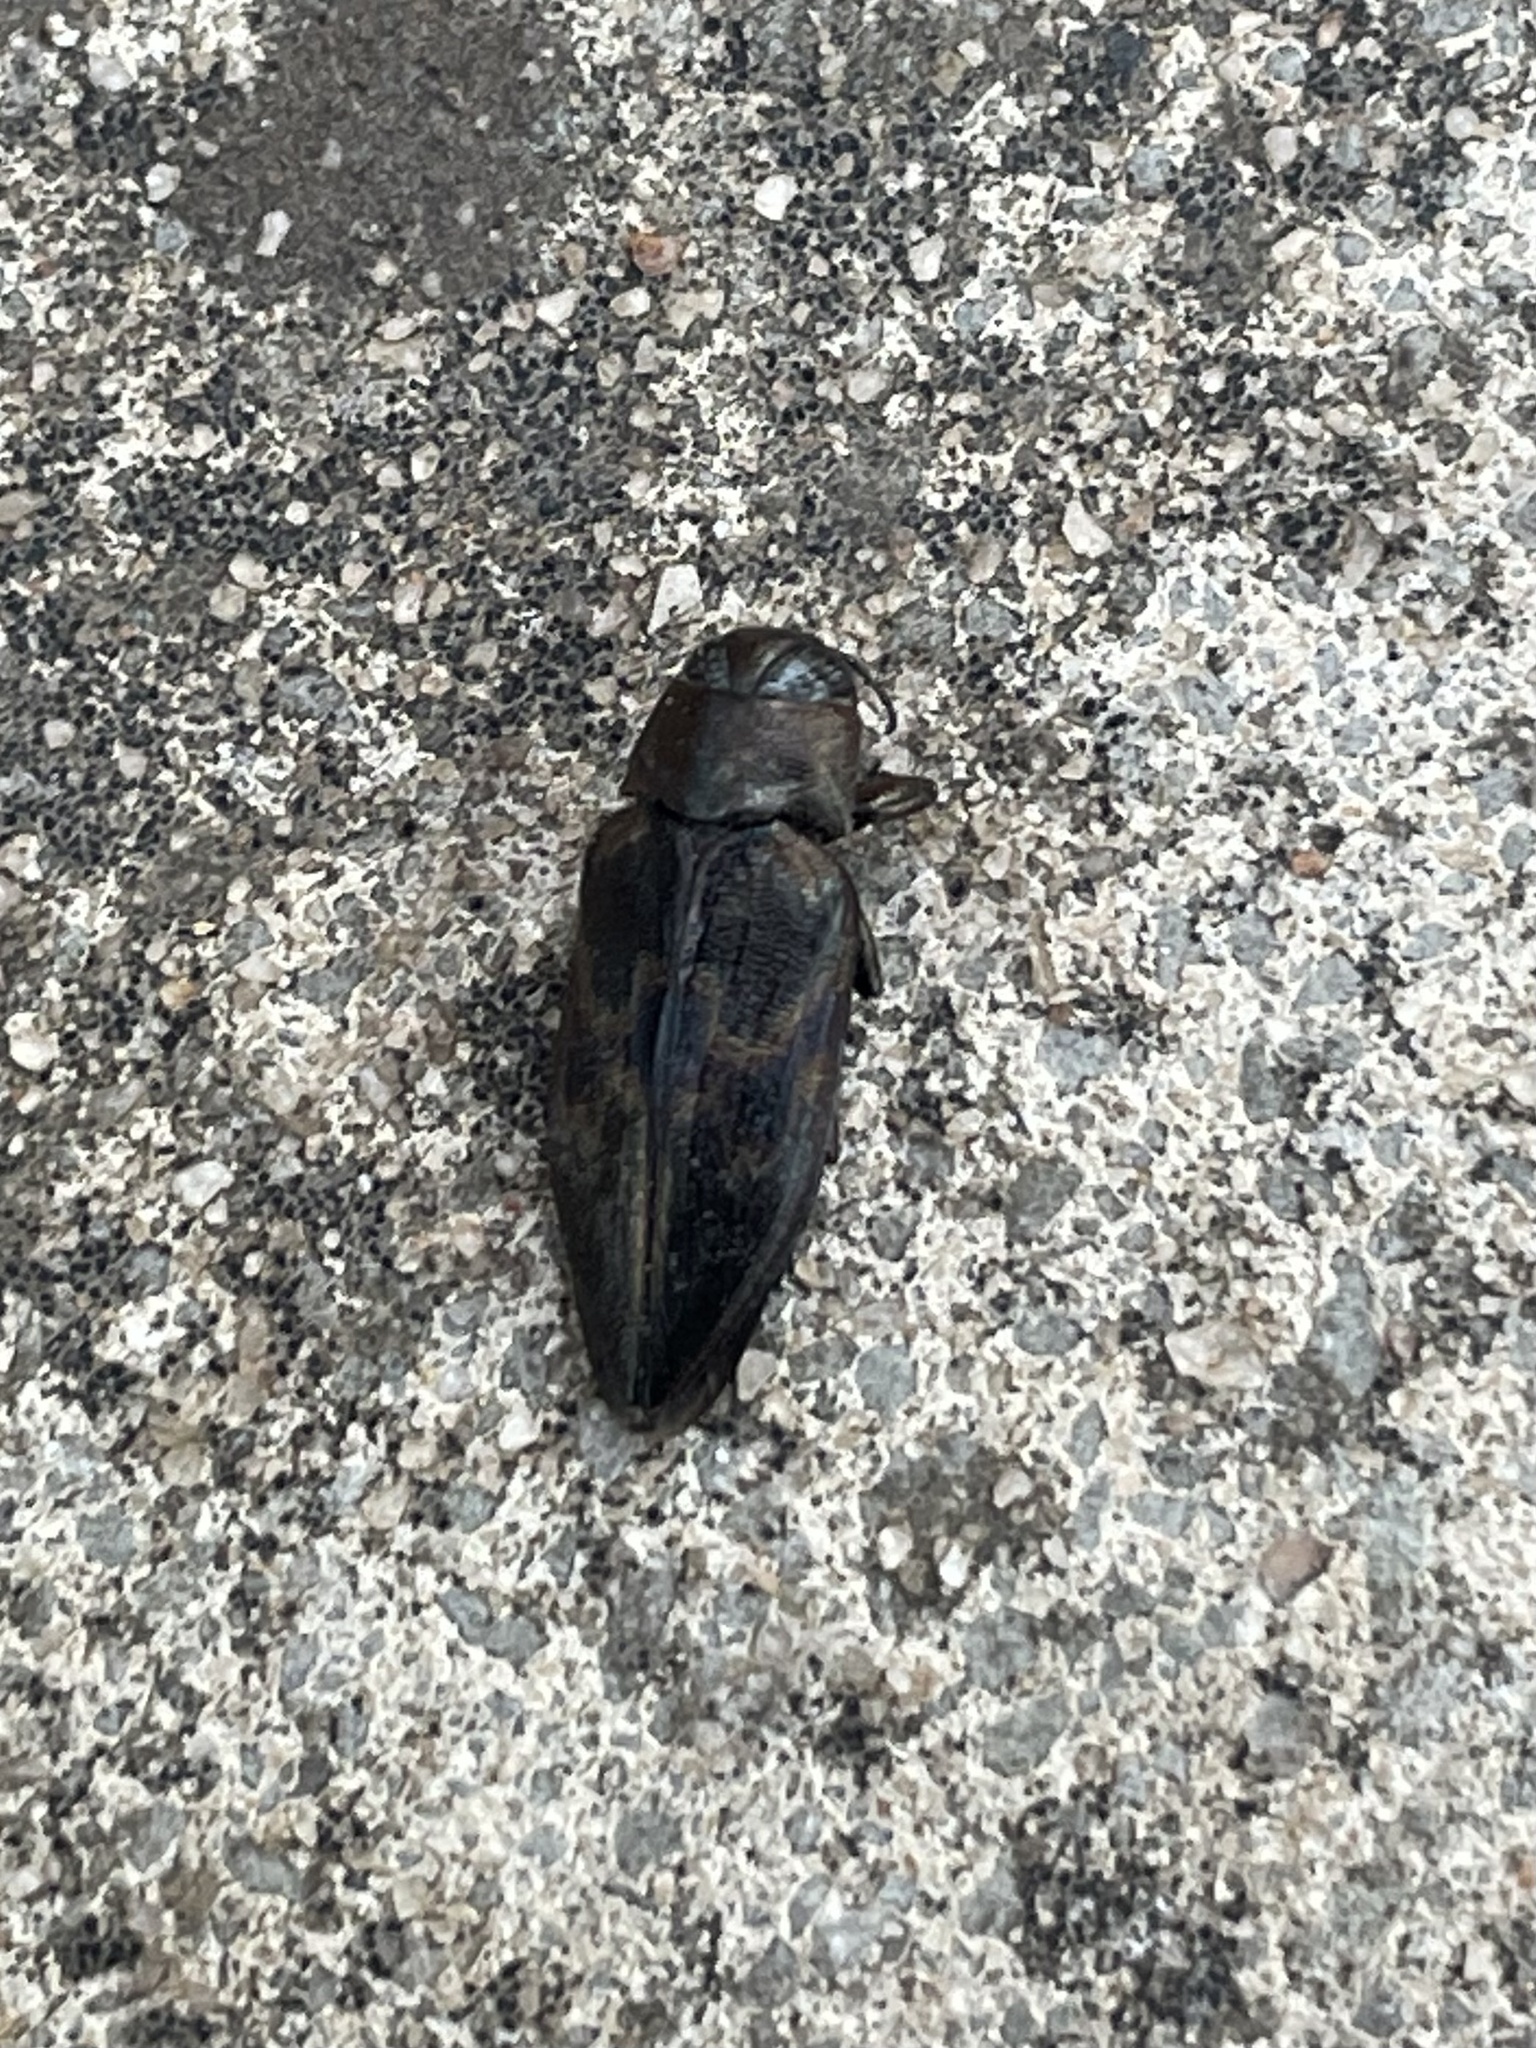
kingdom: Animalia
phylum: Arthropoda
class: Insecta
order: Coleoptera
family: Buprestidae
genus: Actenodes
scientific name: Actenodes calcaratus
